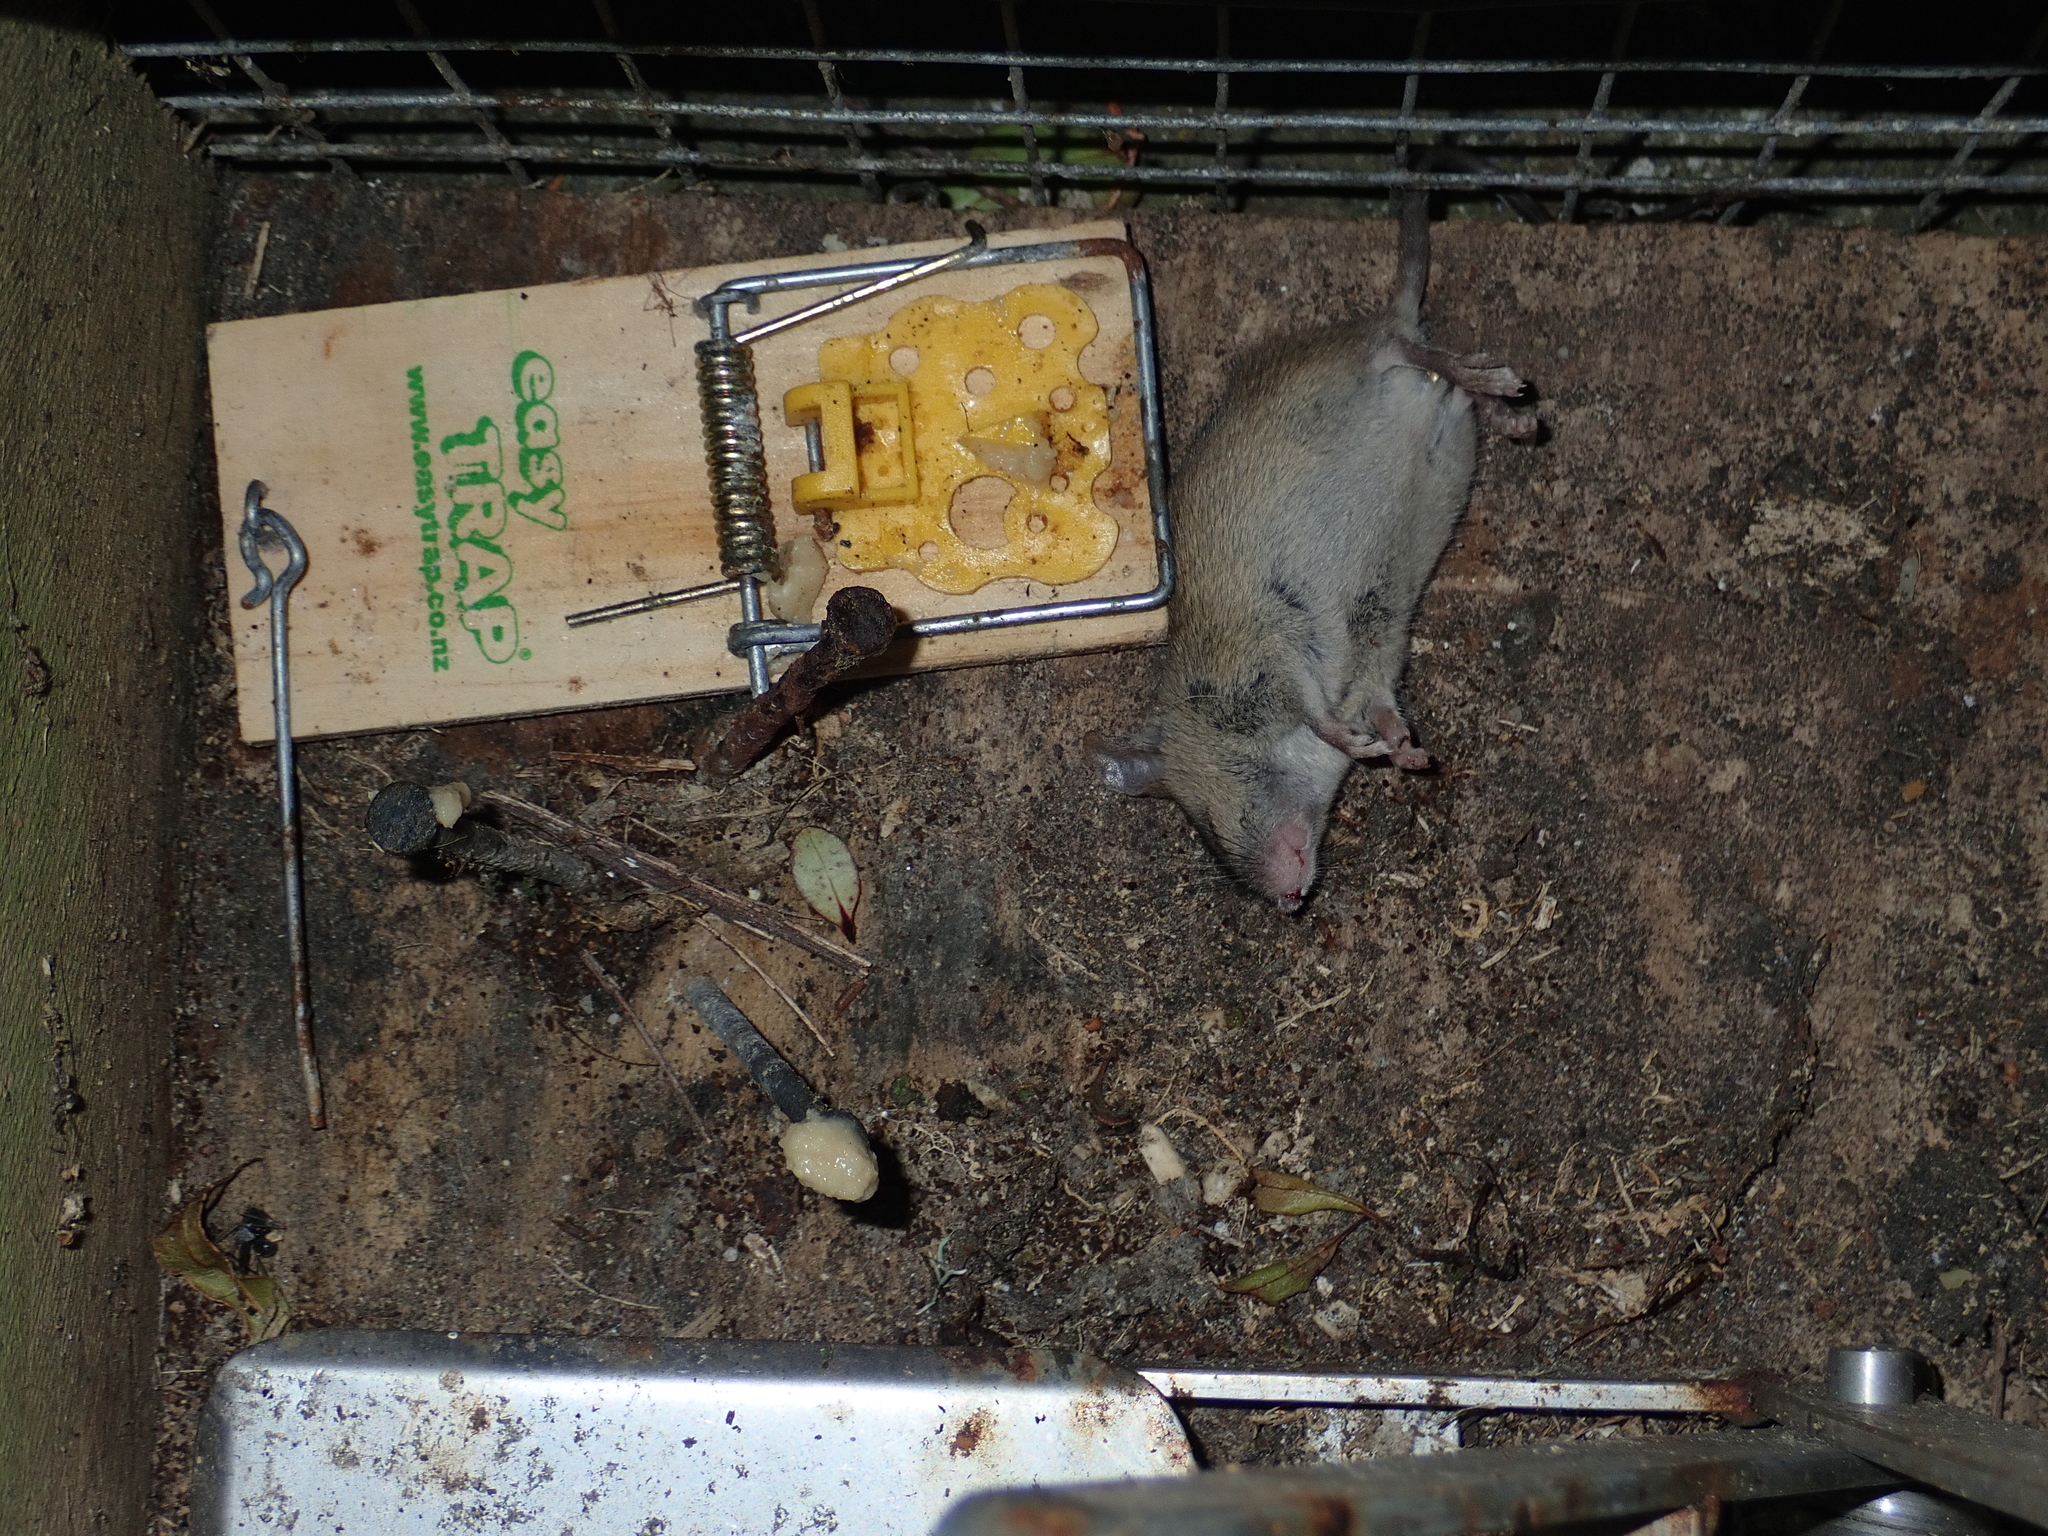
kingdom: Animalia
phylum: Chordata
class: Mammalia
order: Rodentia
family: Muridae
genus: Mus
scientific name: Mus musculus
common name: House mouse
